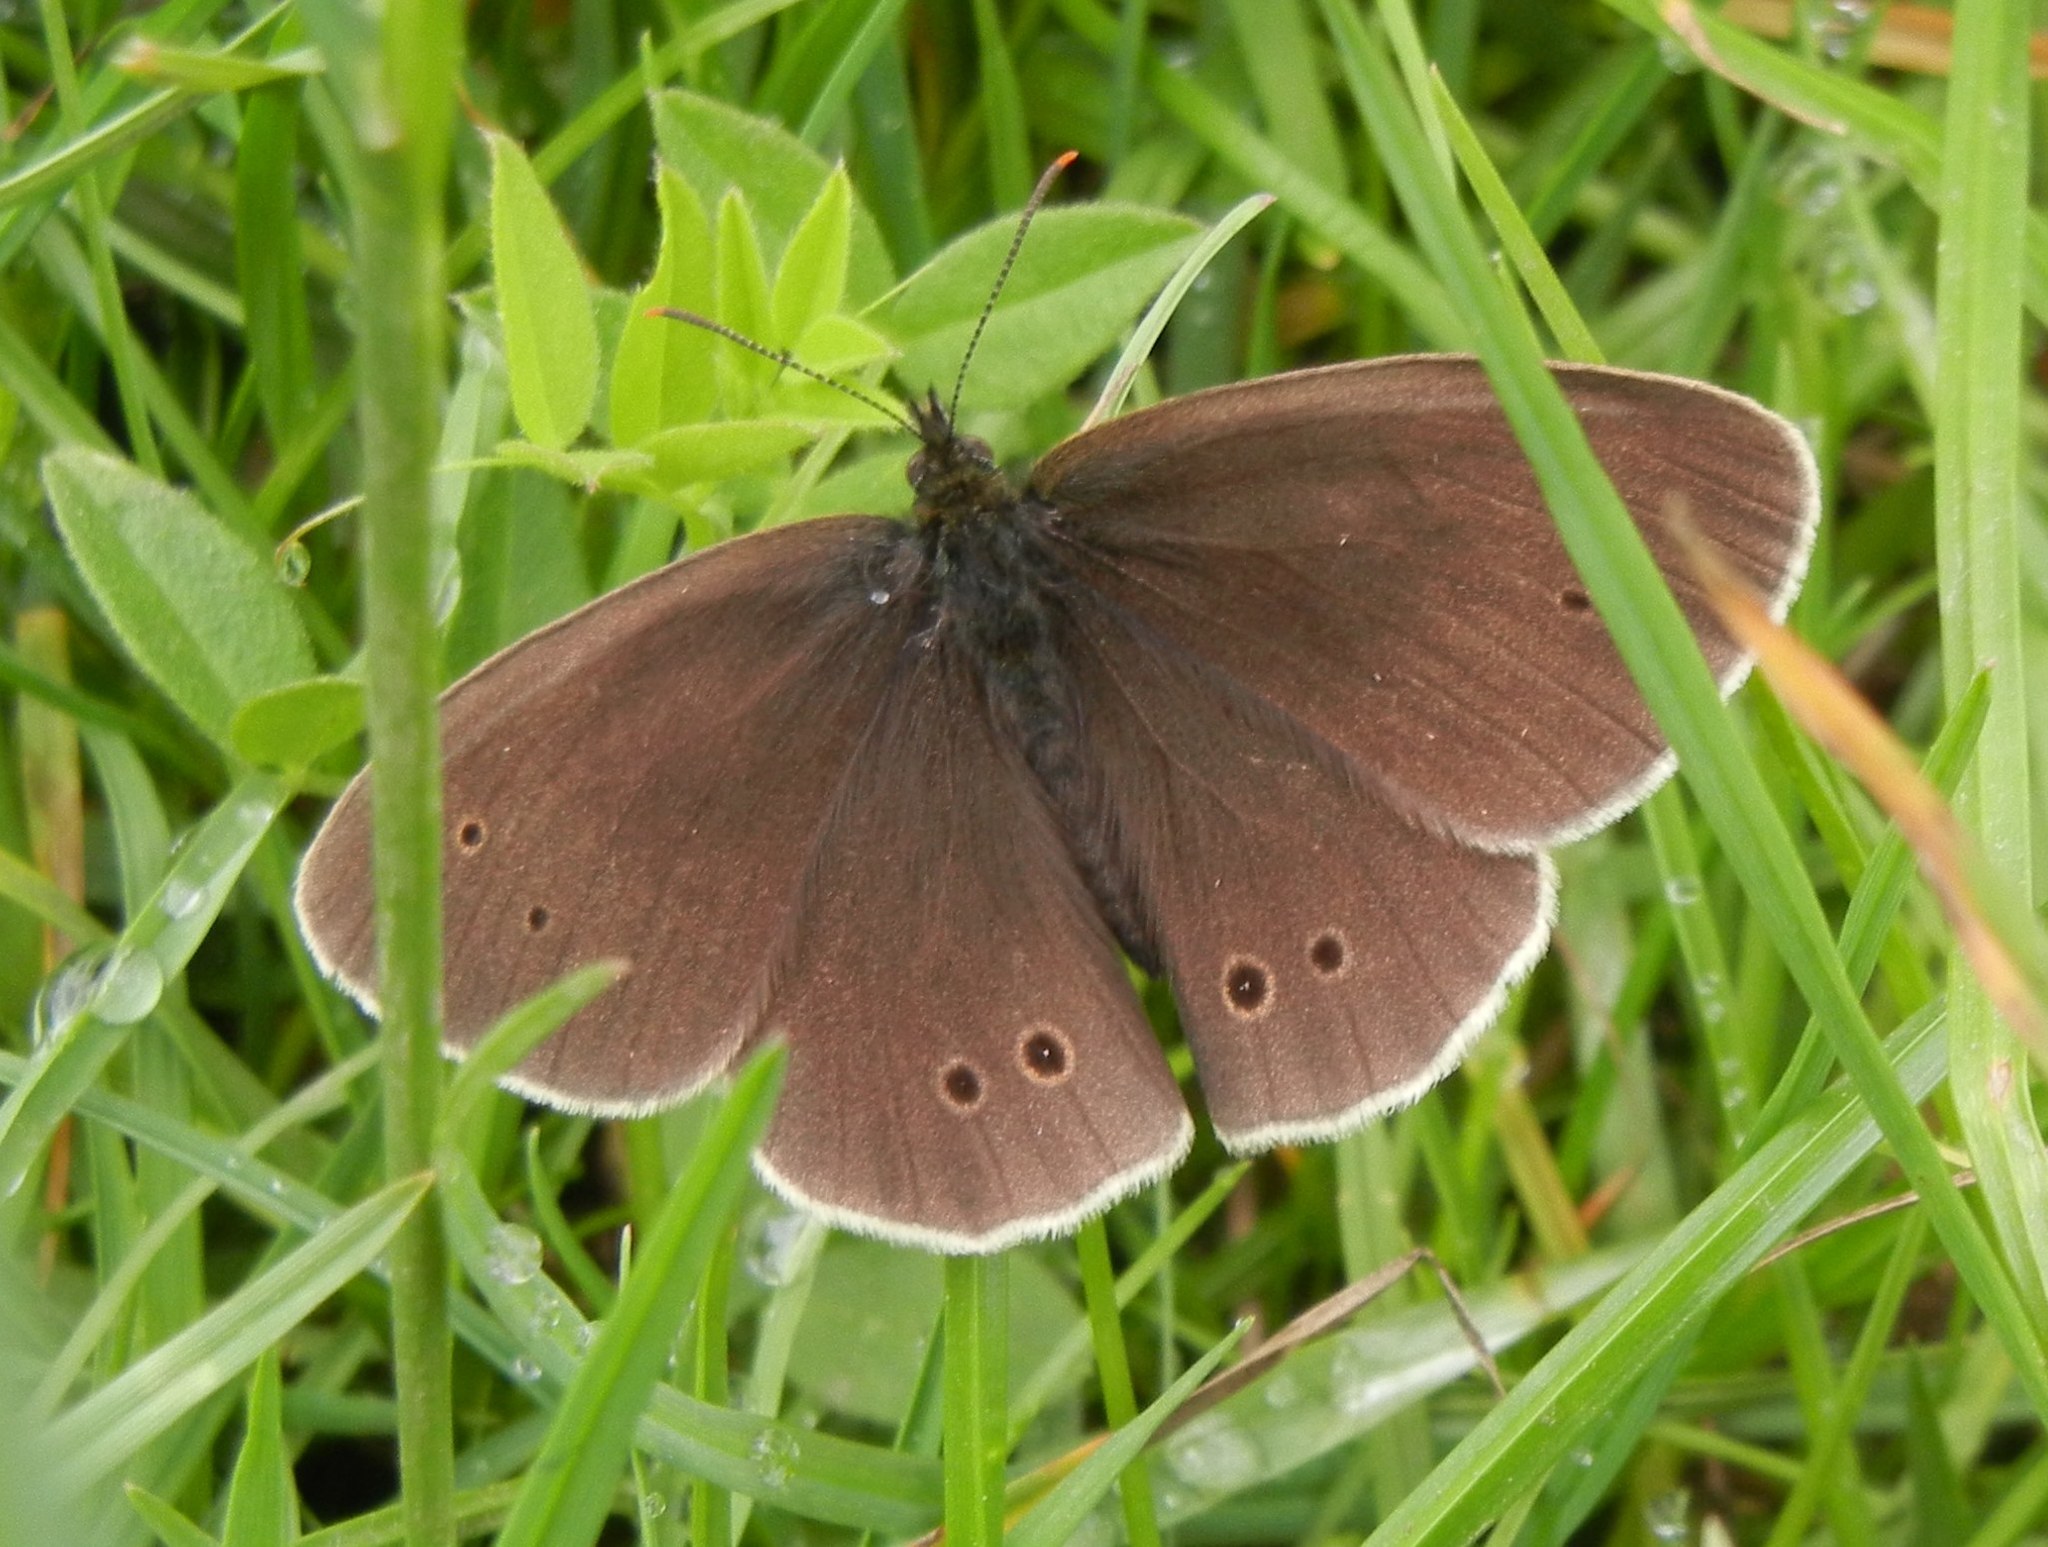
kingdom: Animalia
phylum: Arthropoda
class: Insecta
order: Lepidoptera
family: Nymphalidae
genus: Aphantopus
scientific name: Aphantopus hyperantus
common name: Ringlet
